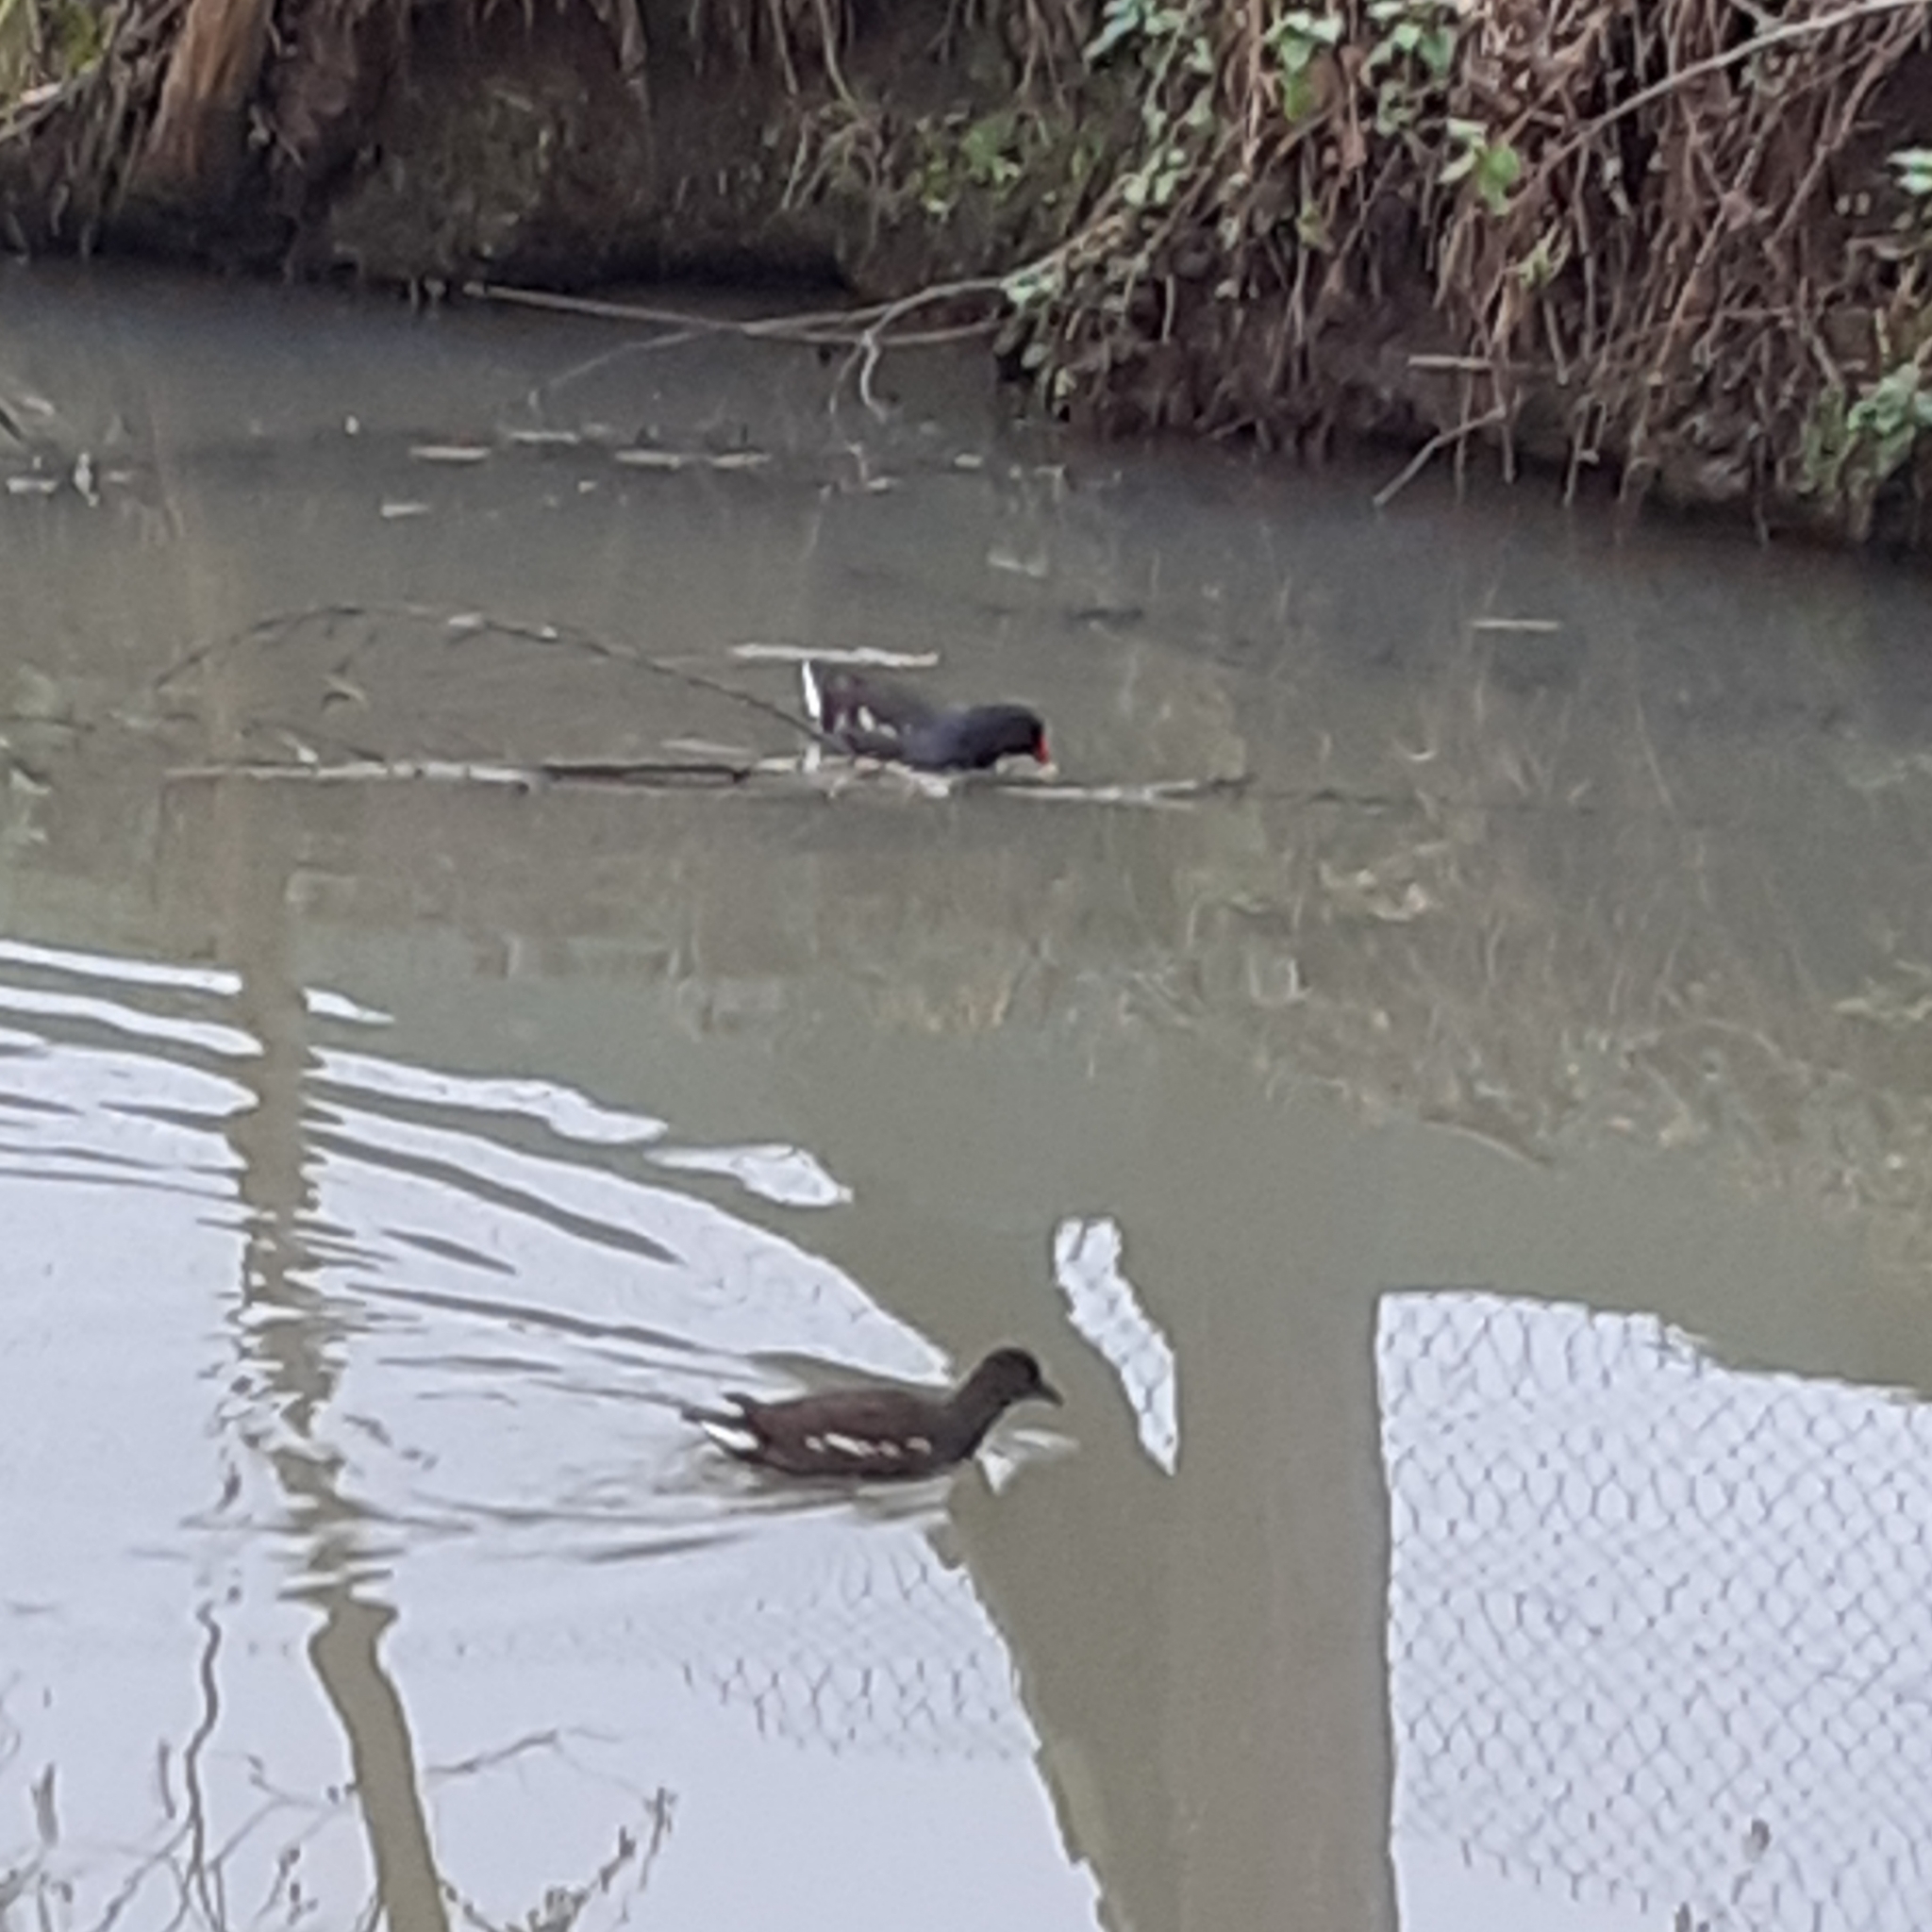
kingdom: Animalia
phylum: Chordata
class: Aves
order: Gruiformes
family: Rallidae
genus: Gallinula
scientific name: Gallinula chloropus
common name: Common moorhen
